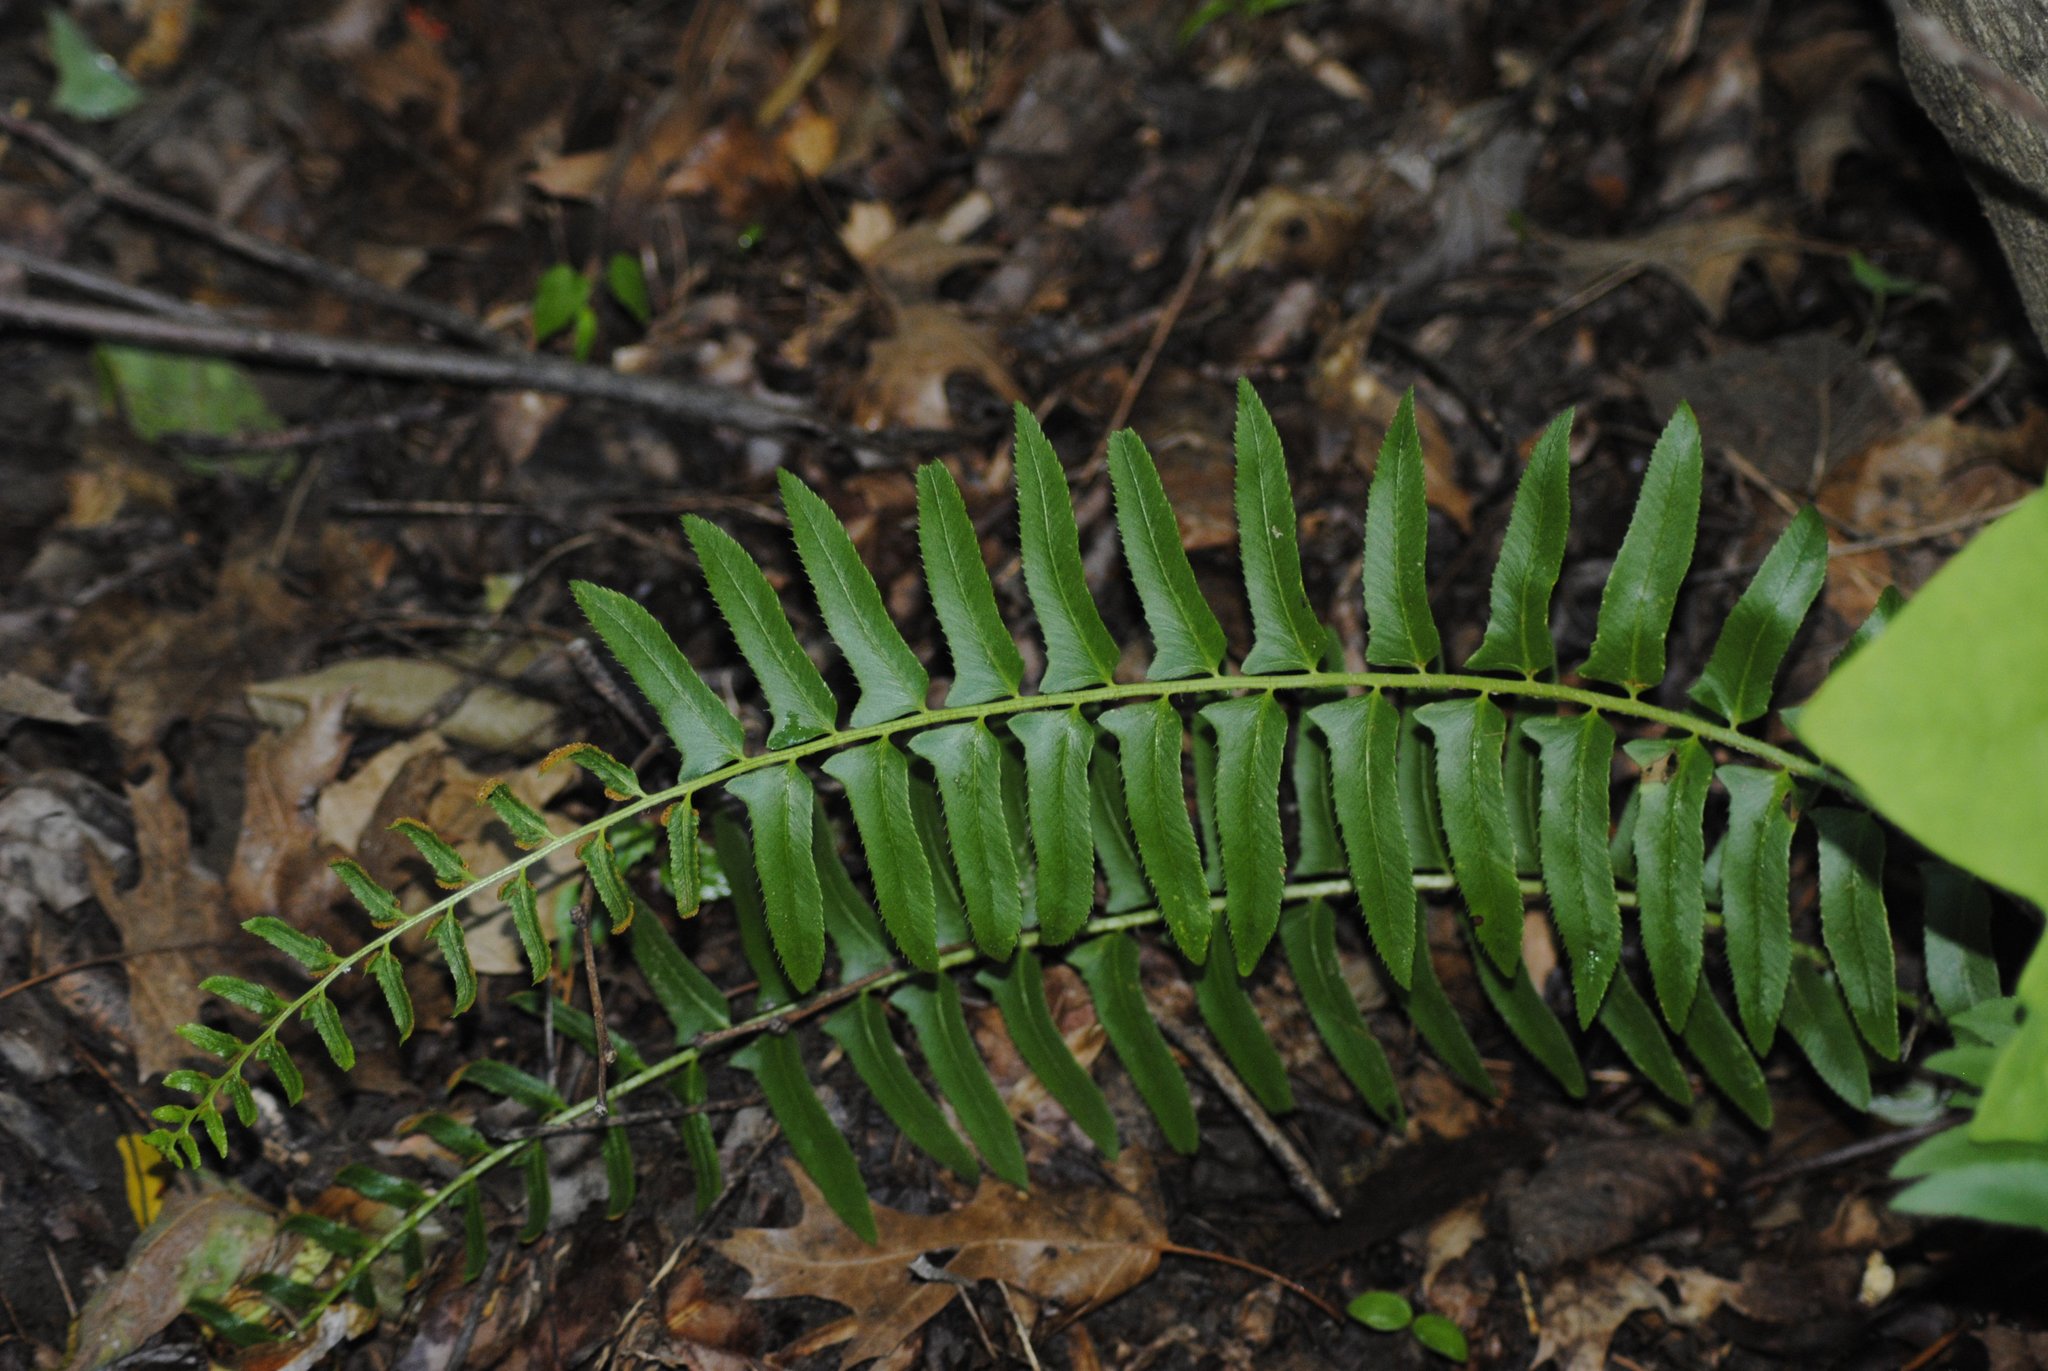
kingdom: Plantae
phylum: Tracheophyta
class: Polypodiopsida
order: Polypodiales
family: Dryopteridaceae
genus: Polystichum
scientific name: Polystichum acrostichoides
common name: Christmas fern
